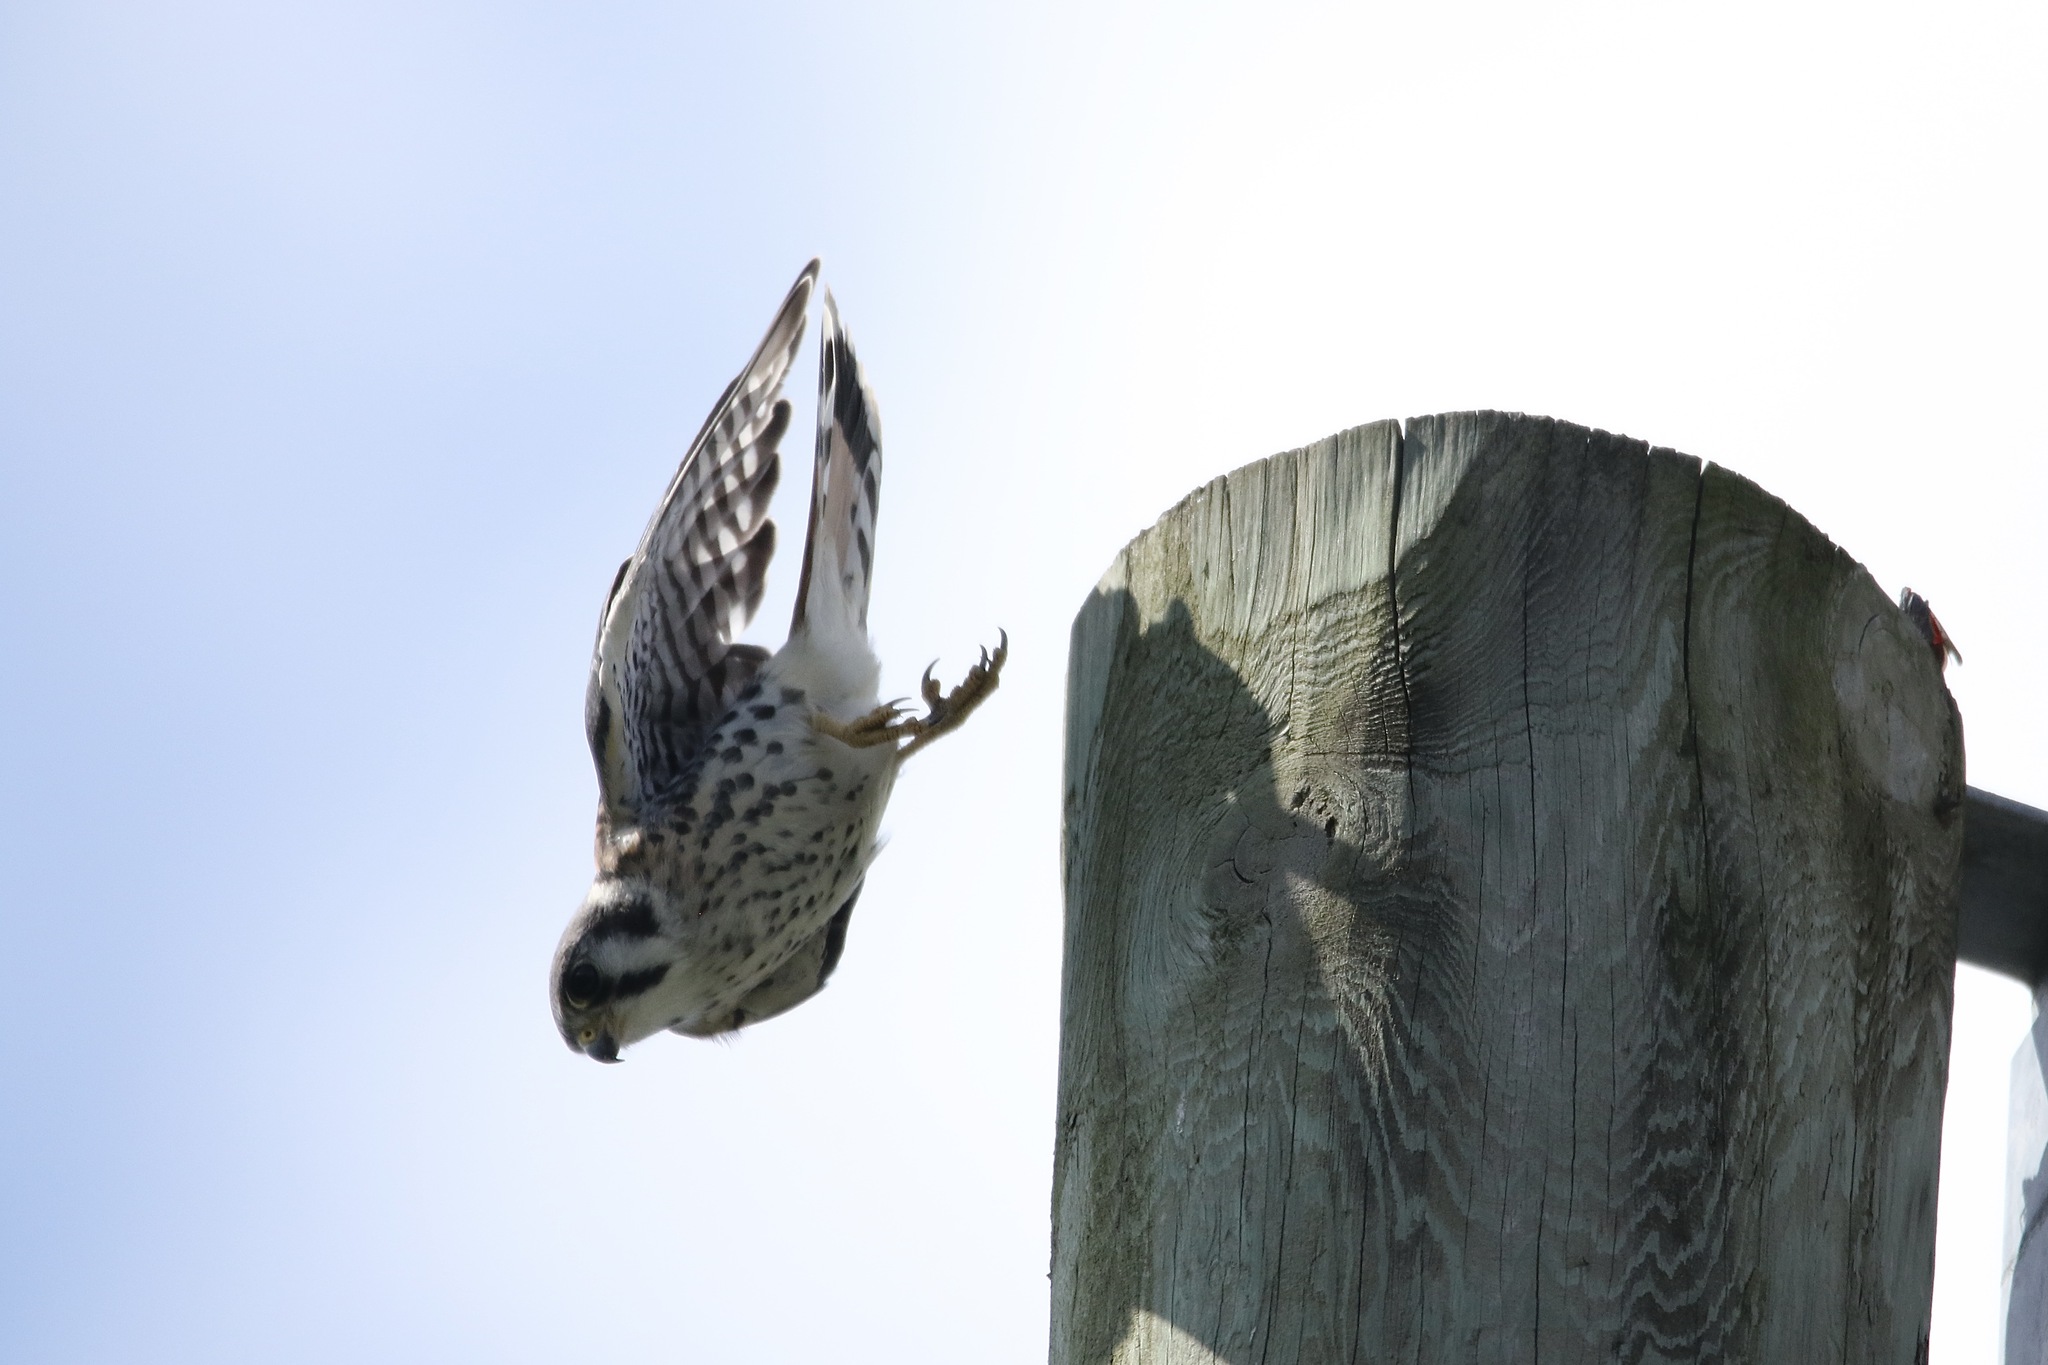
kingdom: Animalia
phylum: Chordata
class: Aves
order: Falconiformes
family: Falconidae
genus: Falco
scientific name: Falco sparverius
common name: American kestrel
